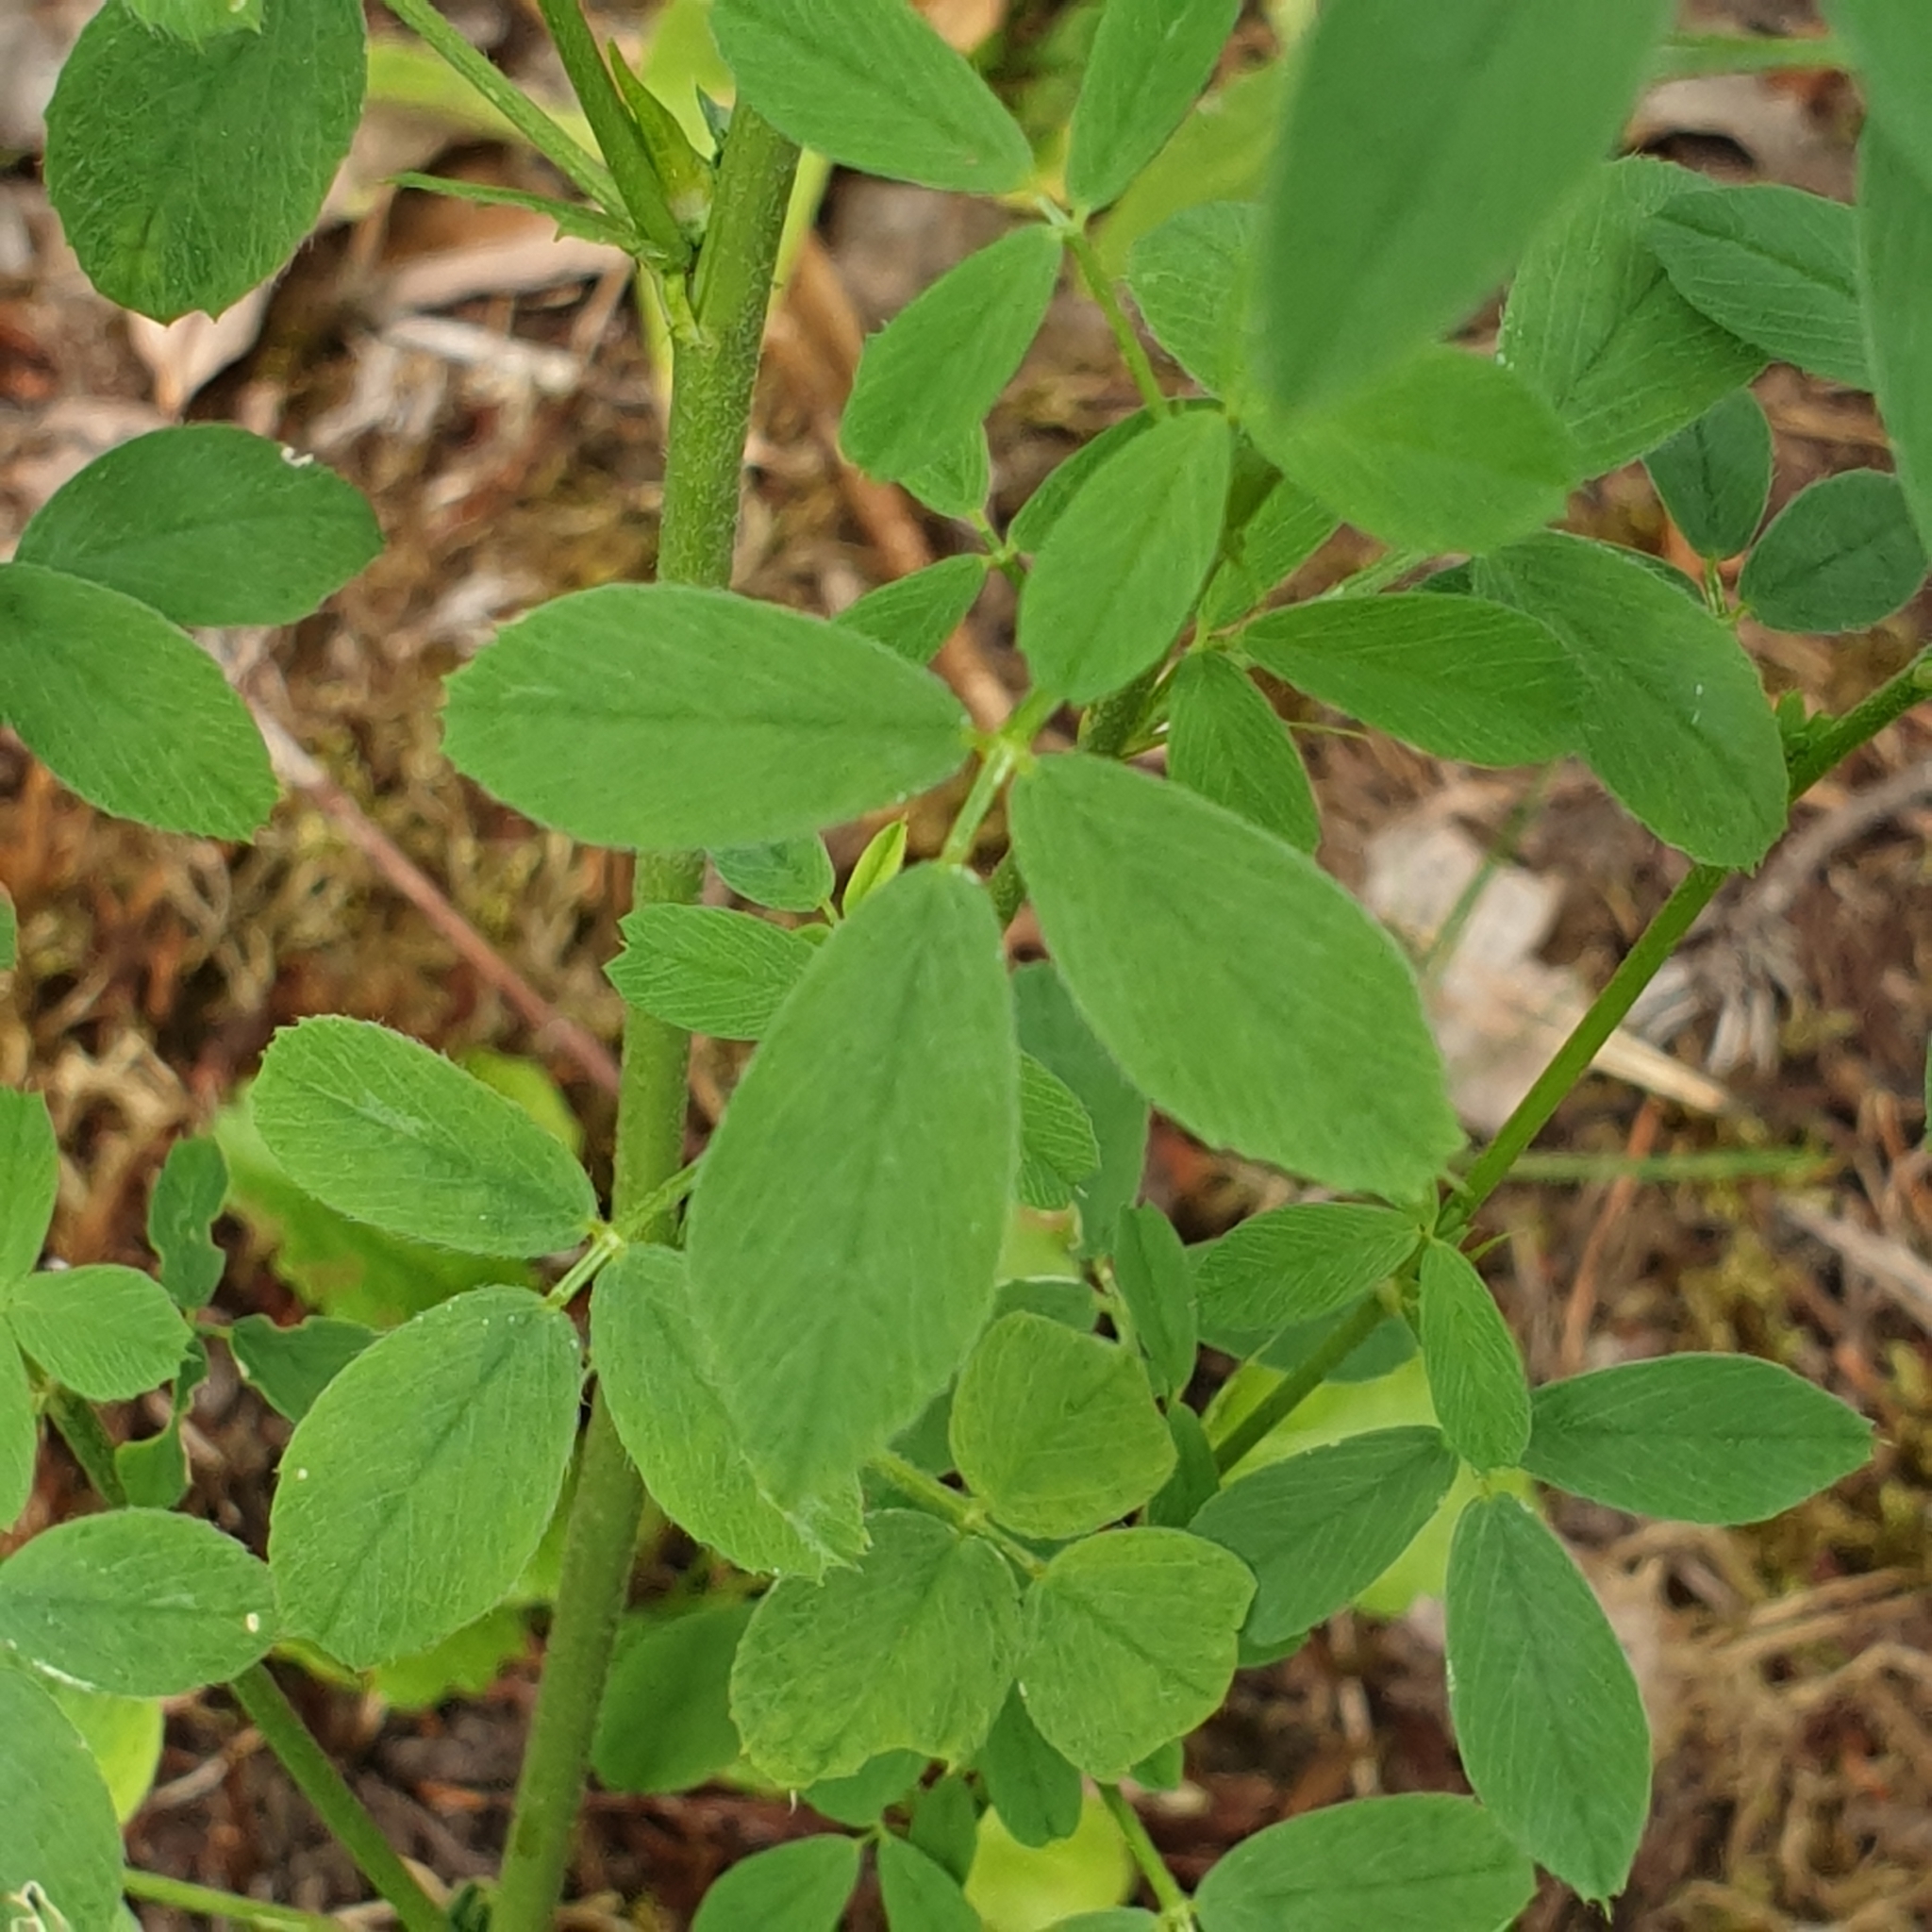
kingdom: Plantae
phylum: Tracheophyta
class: Magnoliopsida
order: Fabales
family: Fabaceae
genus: Medicago
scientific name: Medicago sativa
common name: Alfalfa
